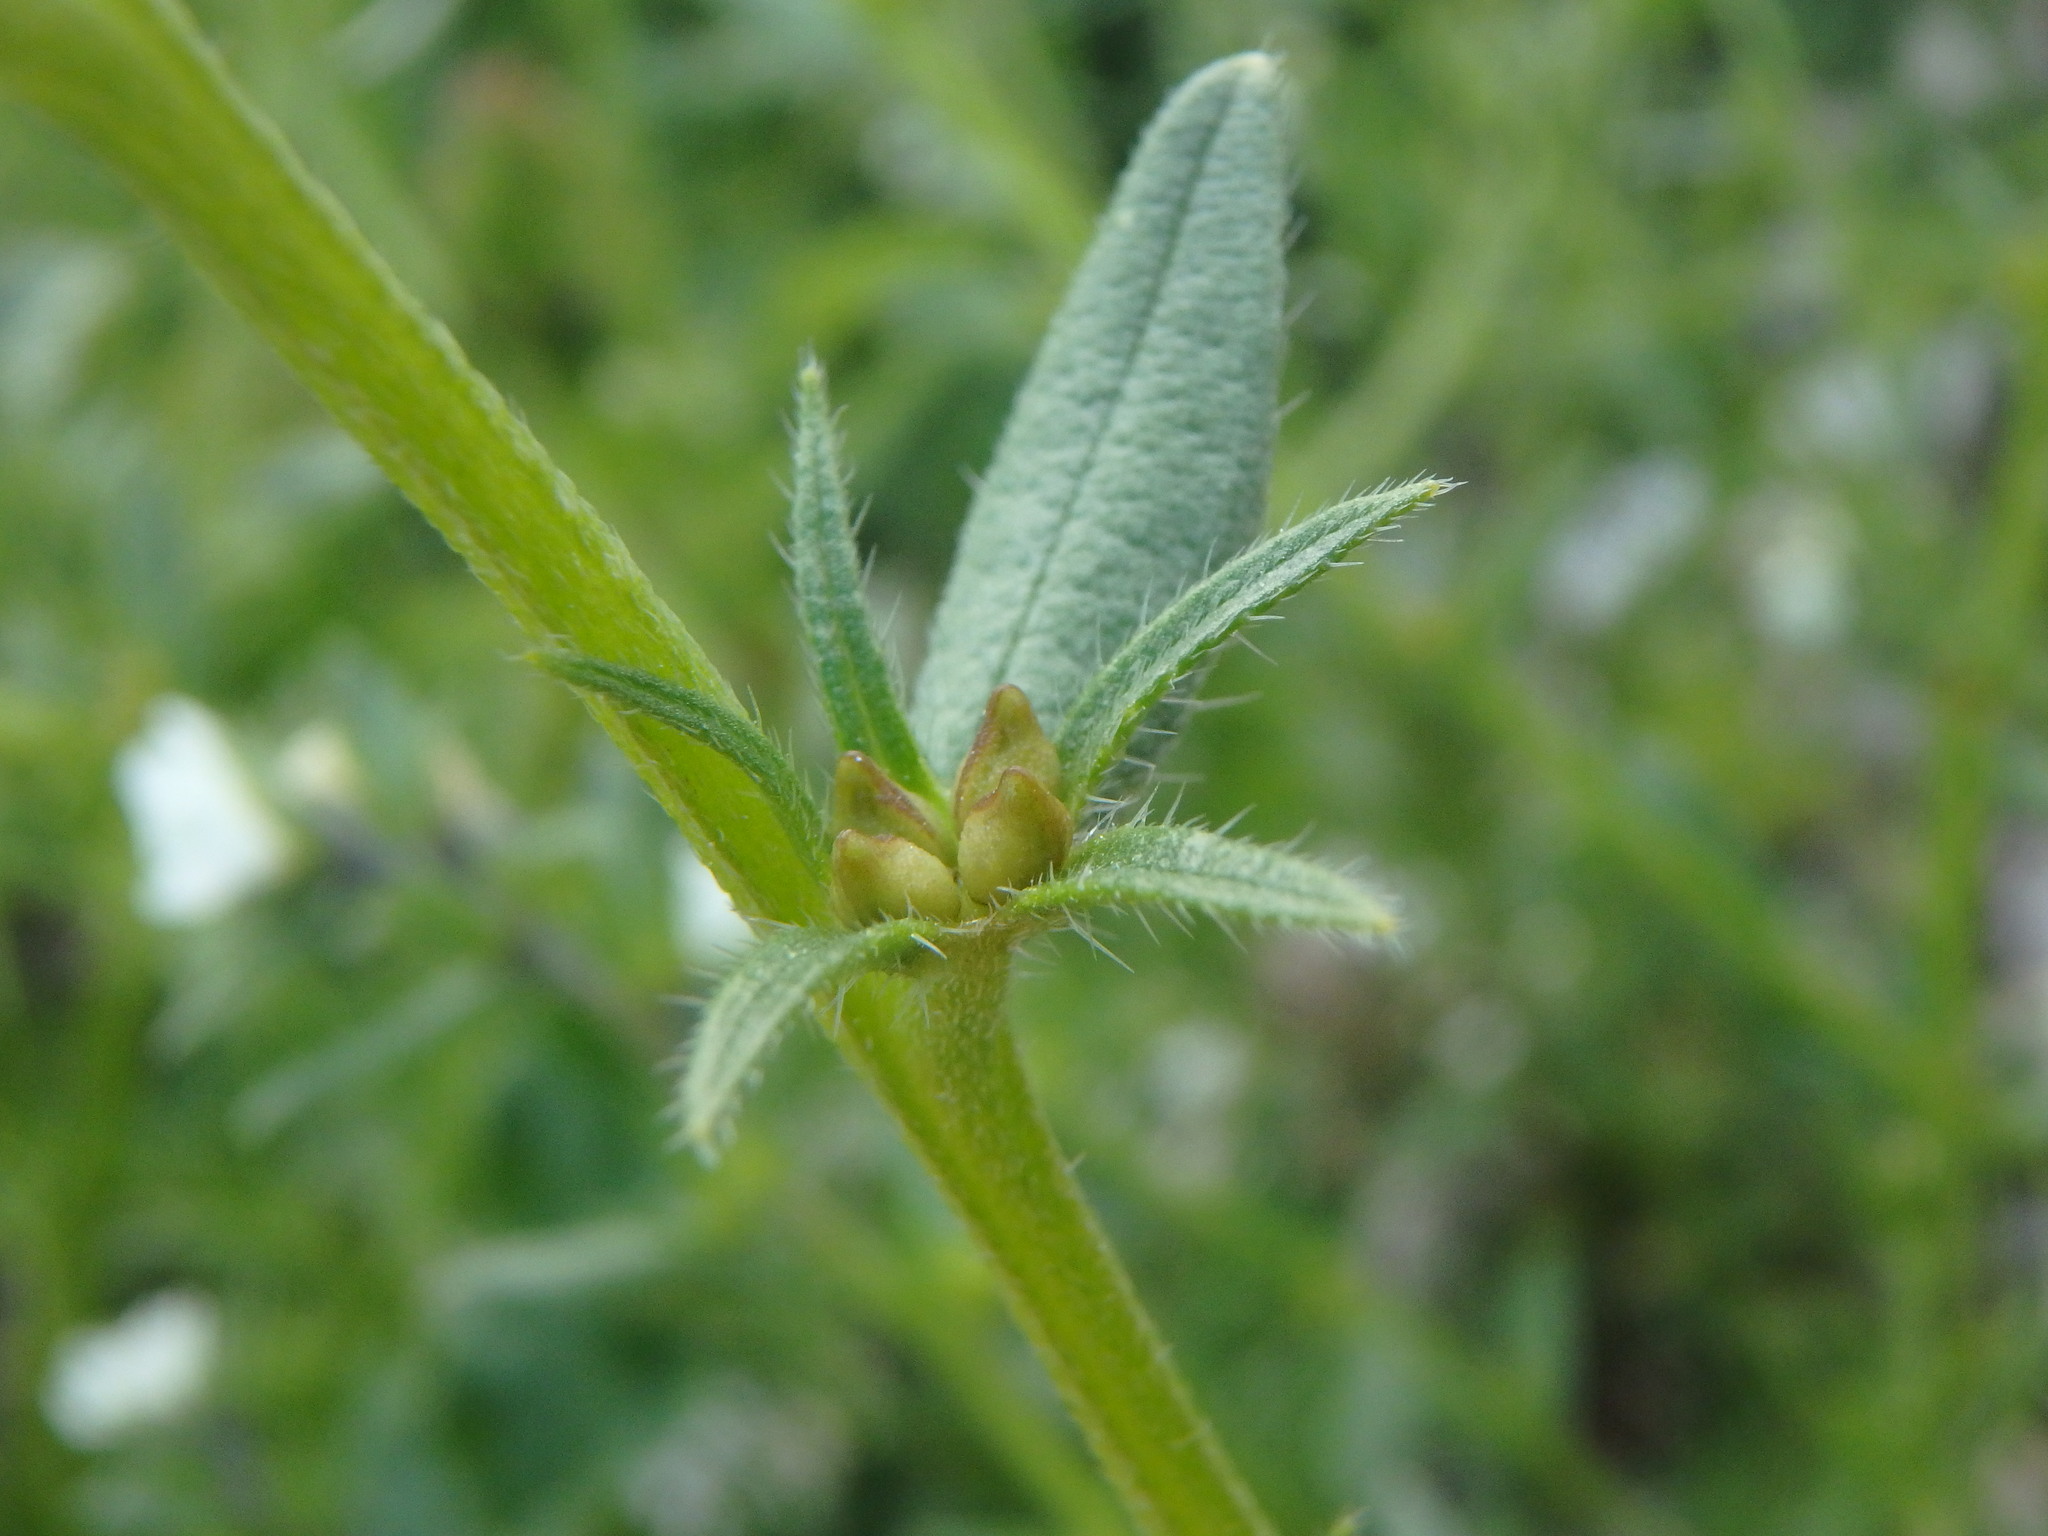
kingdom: Plantae
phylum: Tracheophyta
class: Magnoliopsida
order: Boraginales
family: Boraginaceae
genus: Buglossoides
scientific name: Buglossoides arvensis
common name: Corn gromwell
